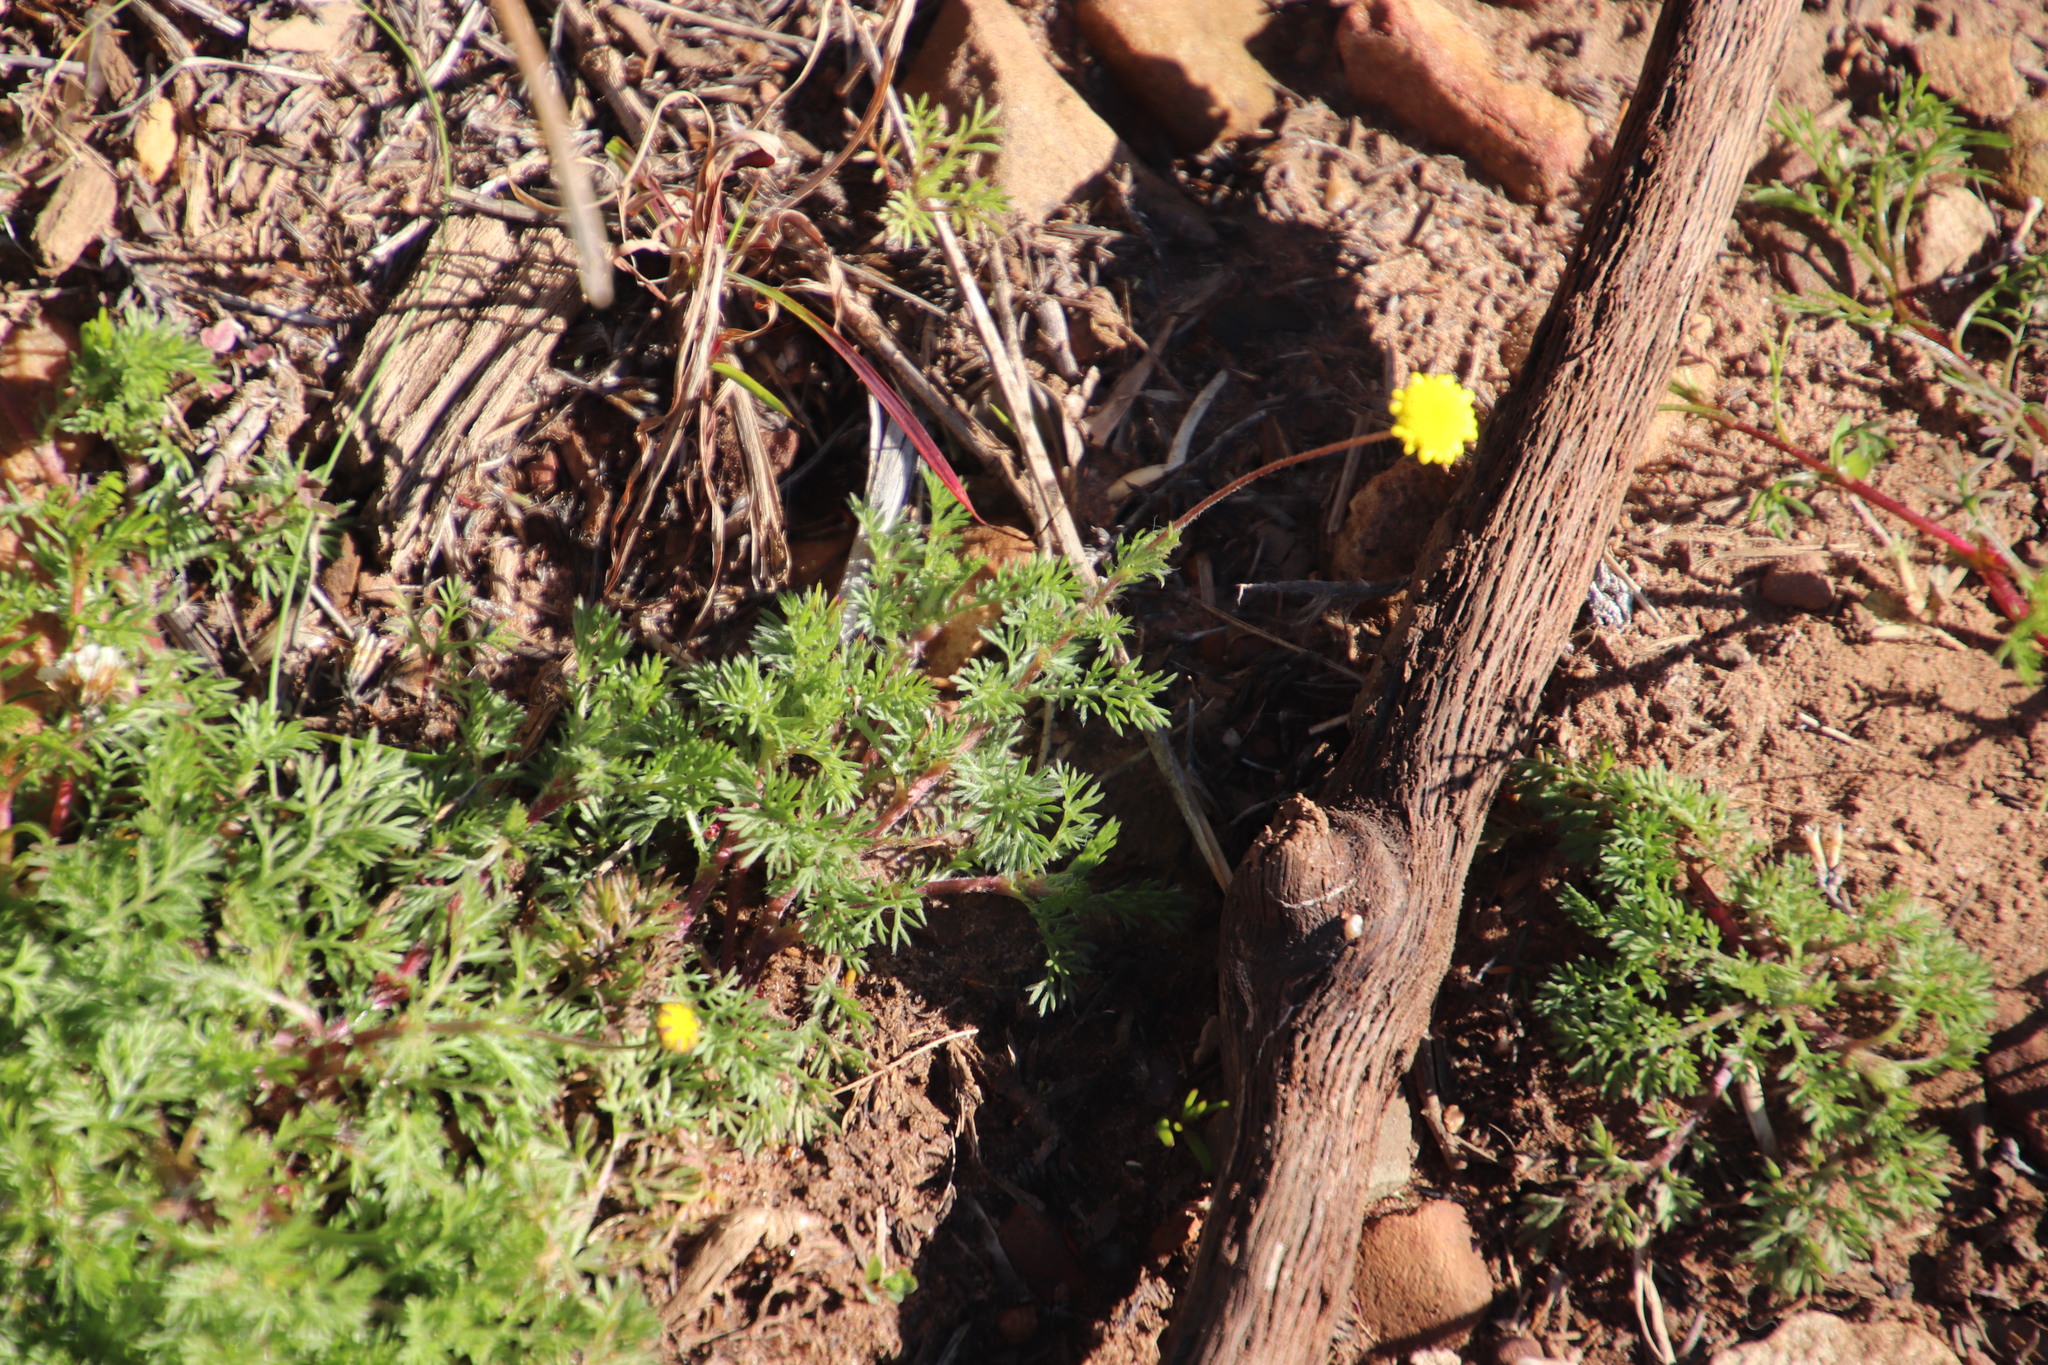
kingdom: Plantae
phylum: Tracheophyta
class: Magnoliopsida
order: Asterales
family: Asteraceae
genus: Cotula
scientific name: Cotula pruinosa
